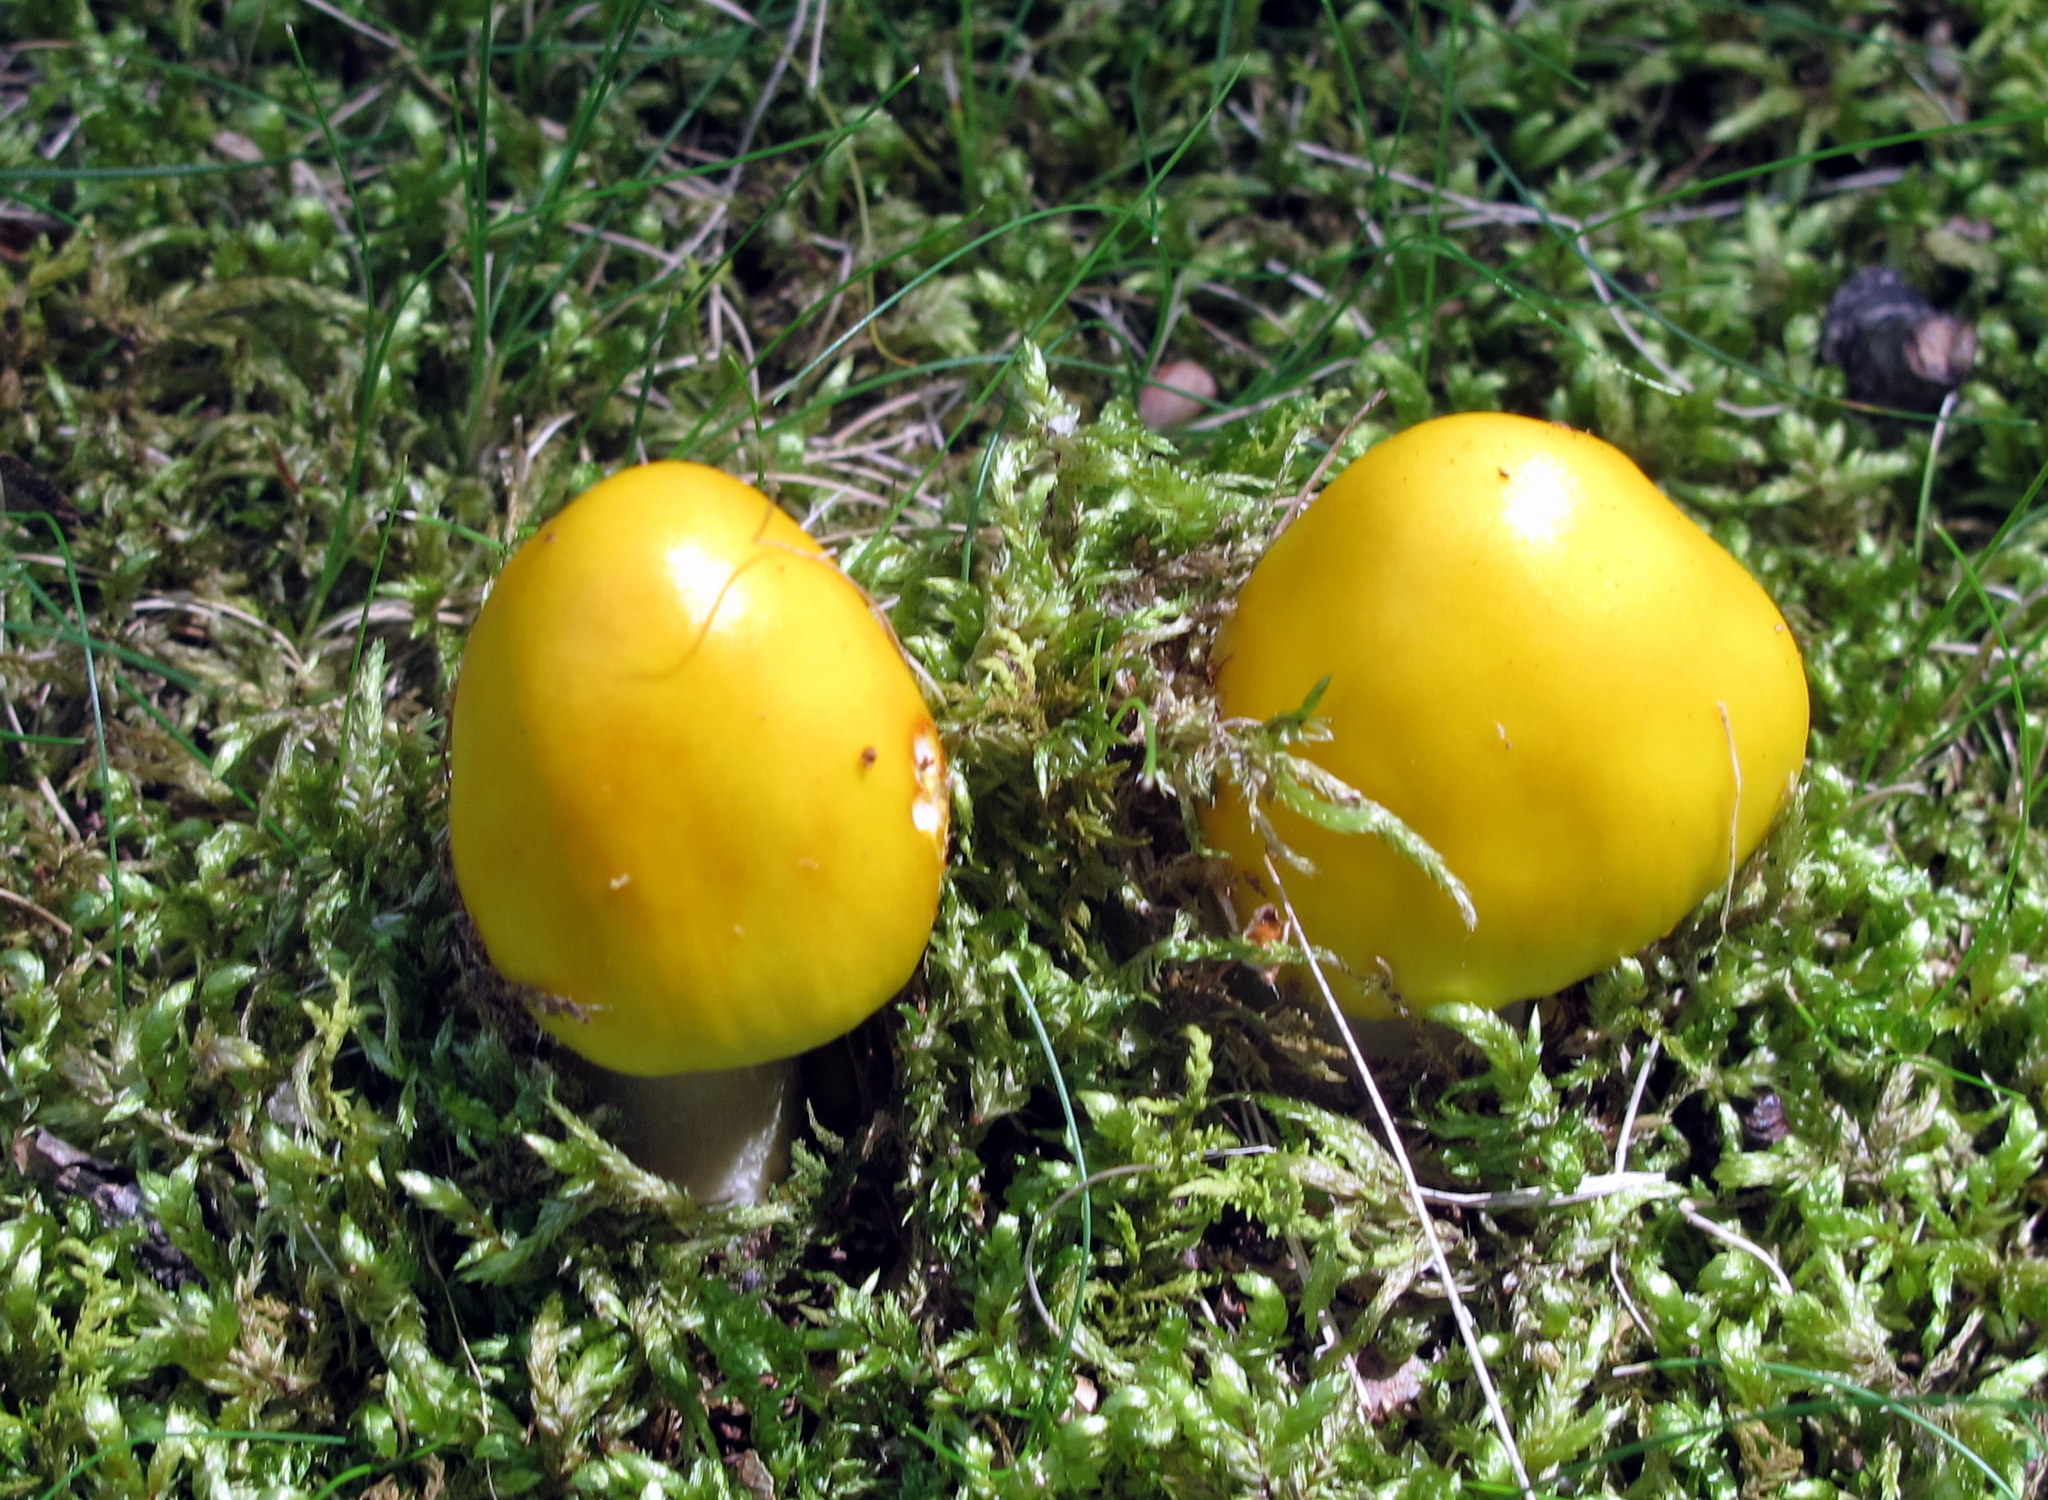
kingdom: Fungi
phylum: Basidiomycota
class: Agaricomycetes
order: Agaricales
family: Amanitaceae
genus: Amanita
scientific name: Amanita flavorubens
